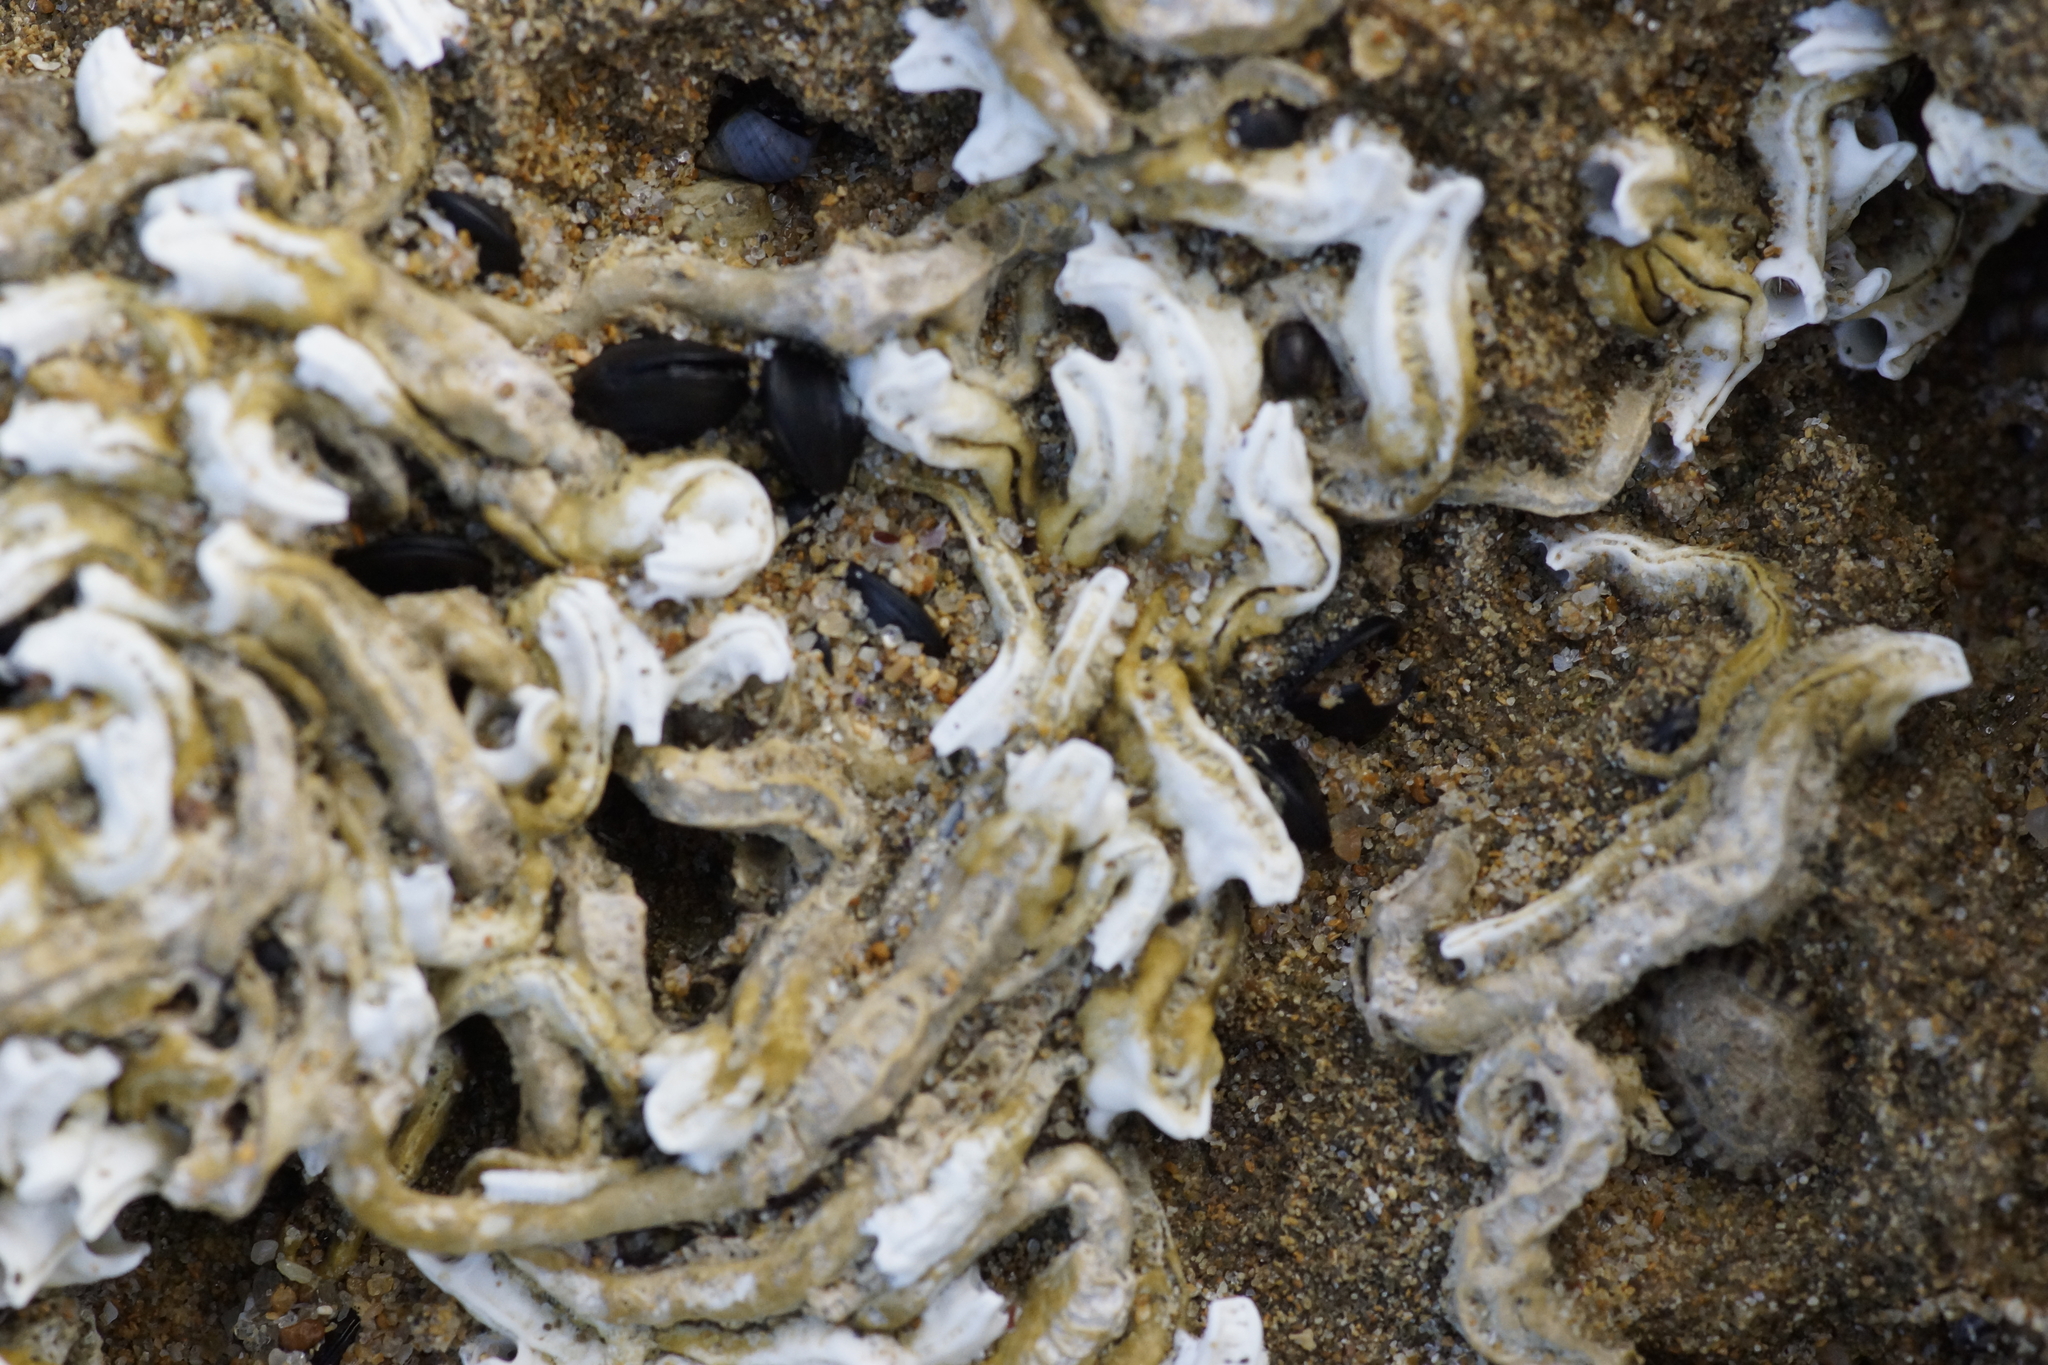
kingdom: Animalia
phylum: Annelida
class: Polychaeta
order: Sabellida
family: Serpulidae
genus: Galeolaria
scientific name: Galeolaria caespitosa
